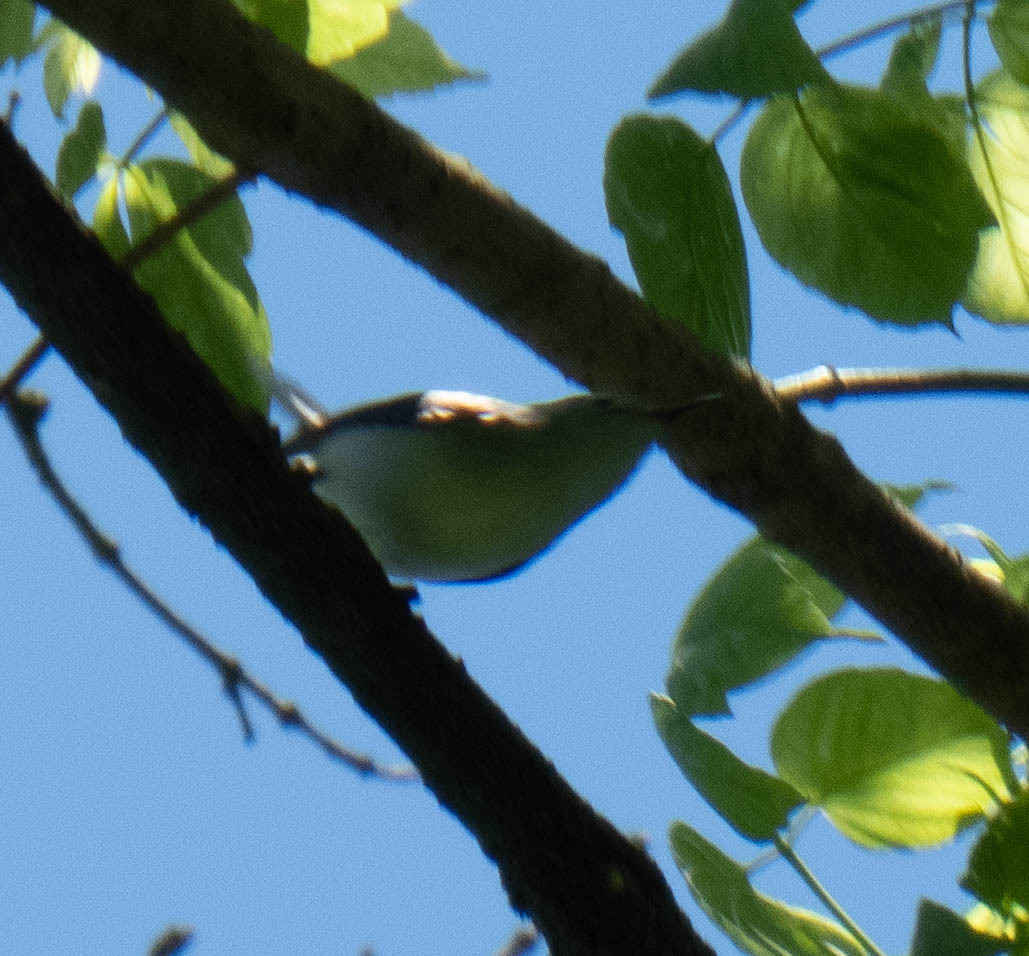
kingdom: Animalia
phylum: Chordata
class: Aves
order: Passeriformes
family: Polioptilidae
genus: Polioptila
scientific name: Polioptila caerulea
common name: Blue-gray gnatcatcher
